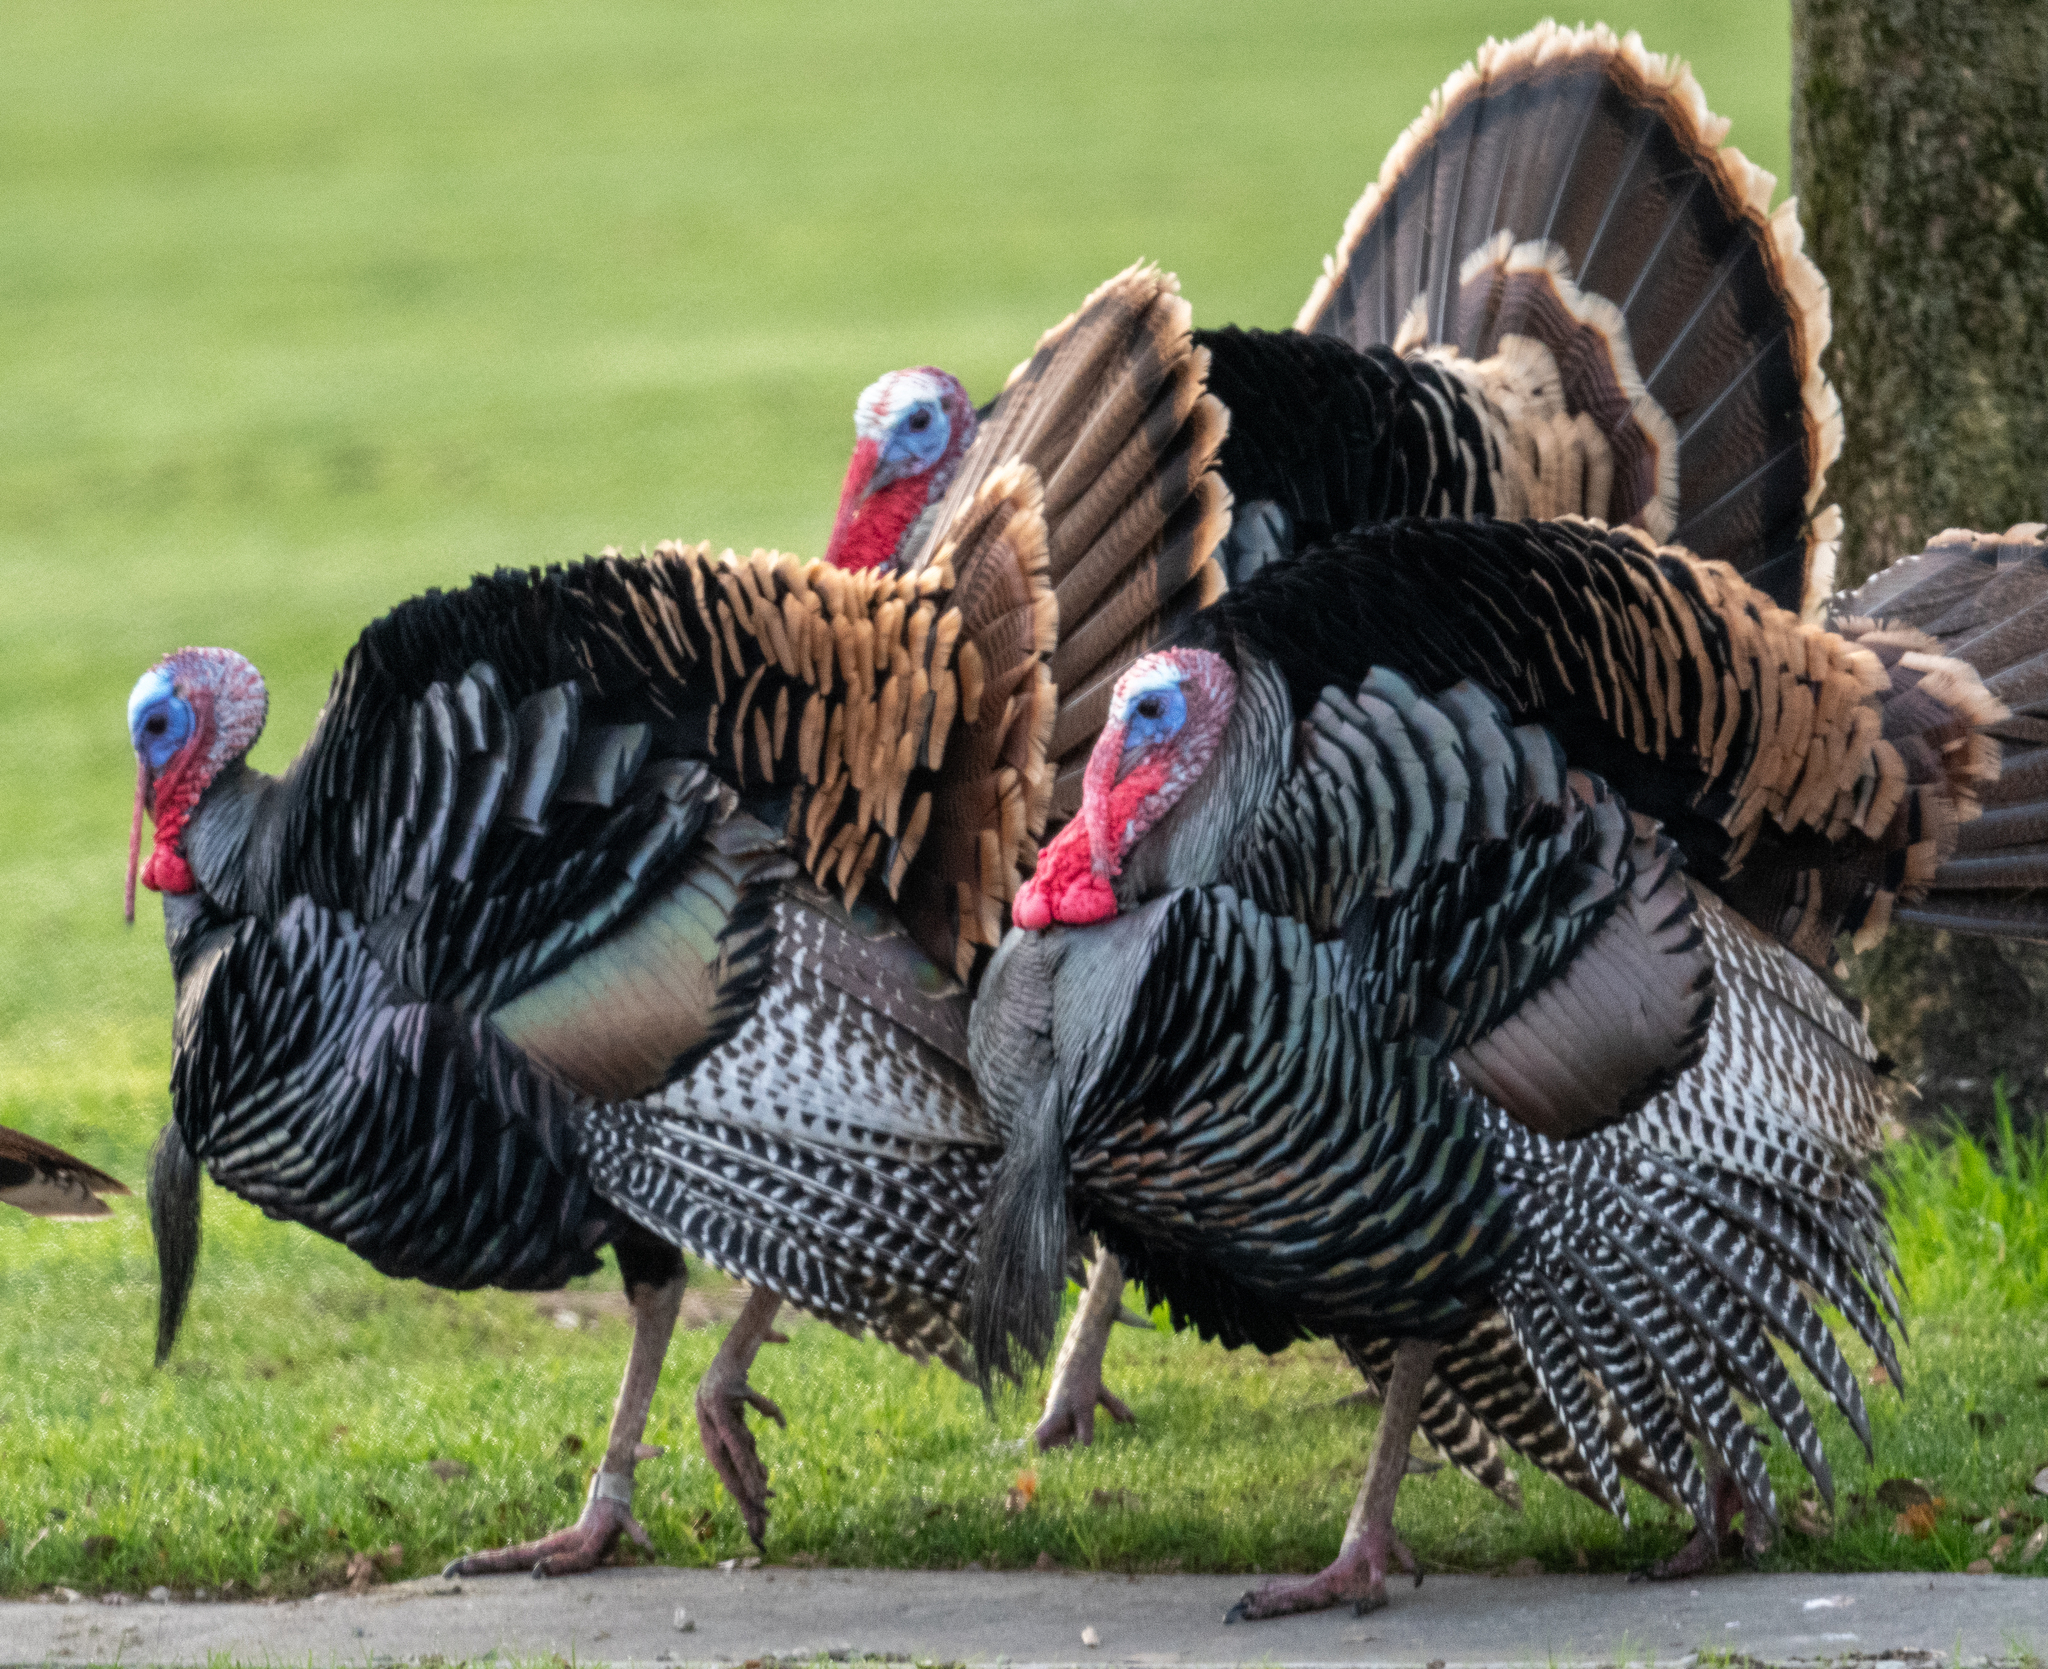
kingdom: Animalia
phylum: Chordata
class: Aves
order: Galliformes
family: Phasianidae
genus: Meleagris
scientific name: Meleagris gallopavo
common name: Wild turkey
